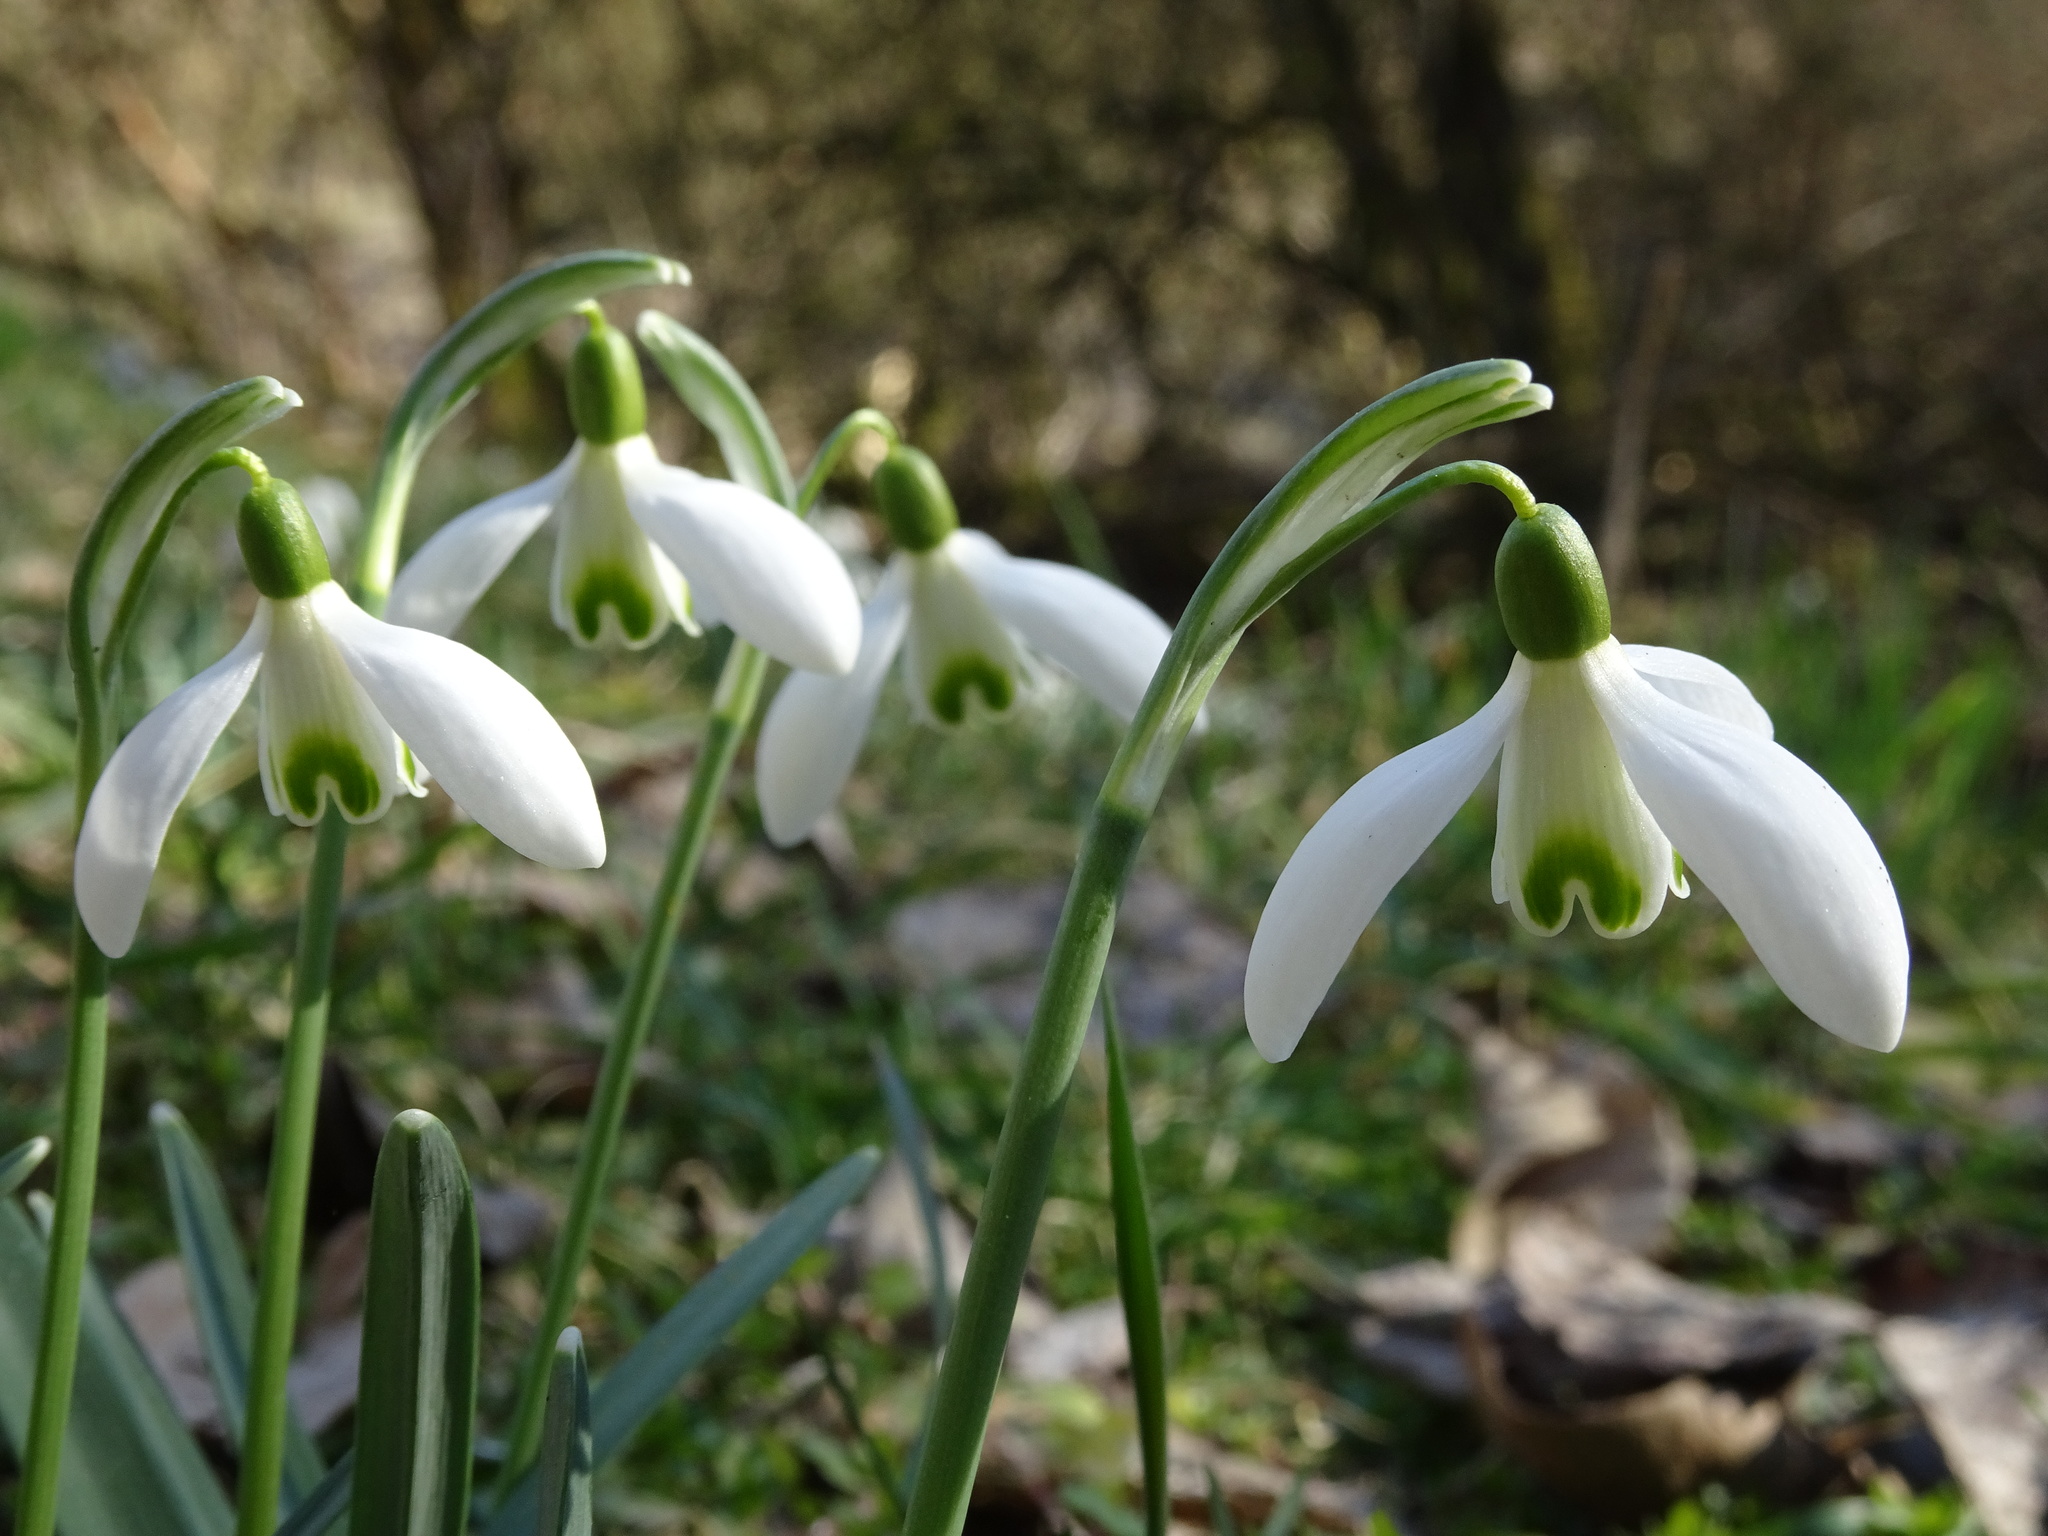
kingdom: Plantae
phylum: Tracheophyta
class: Liliopsida
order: Asparagales
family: Amaryllidaceae
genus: Galanthus
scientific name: Galanthus nivalis
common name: Snowdrop
